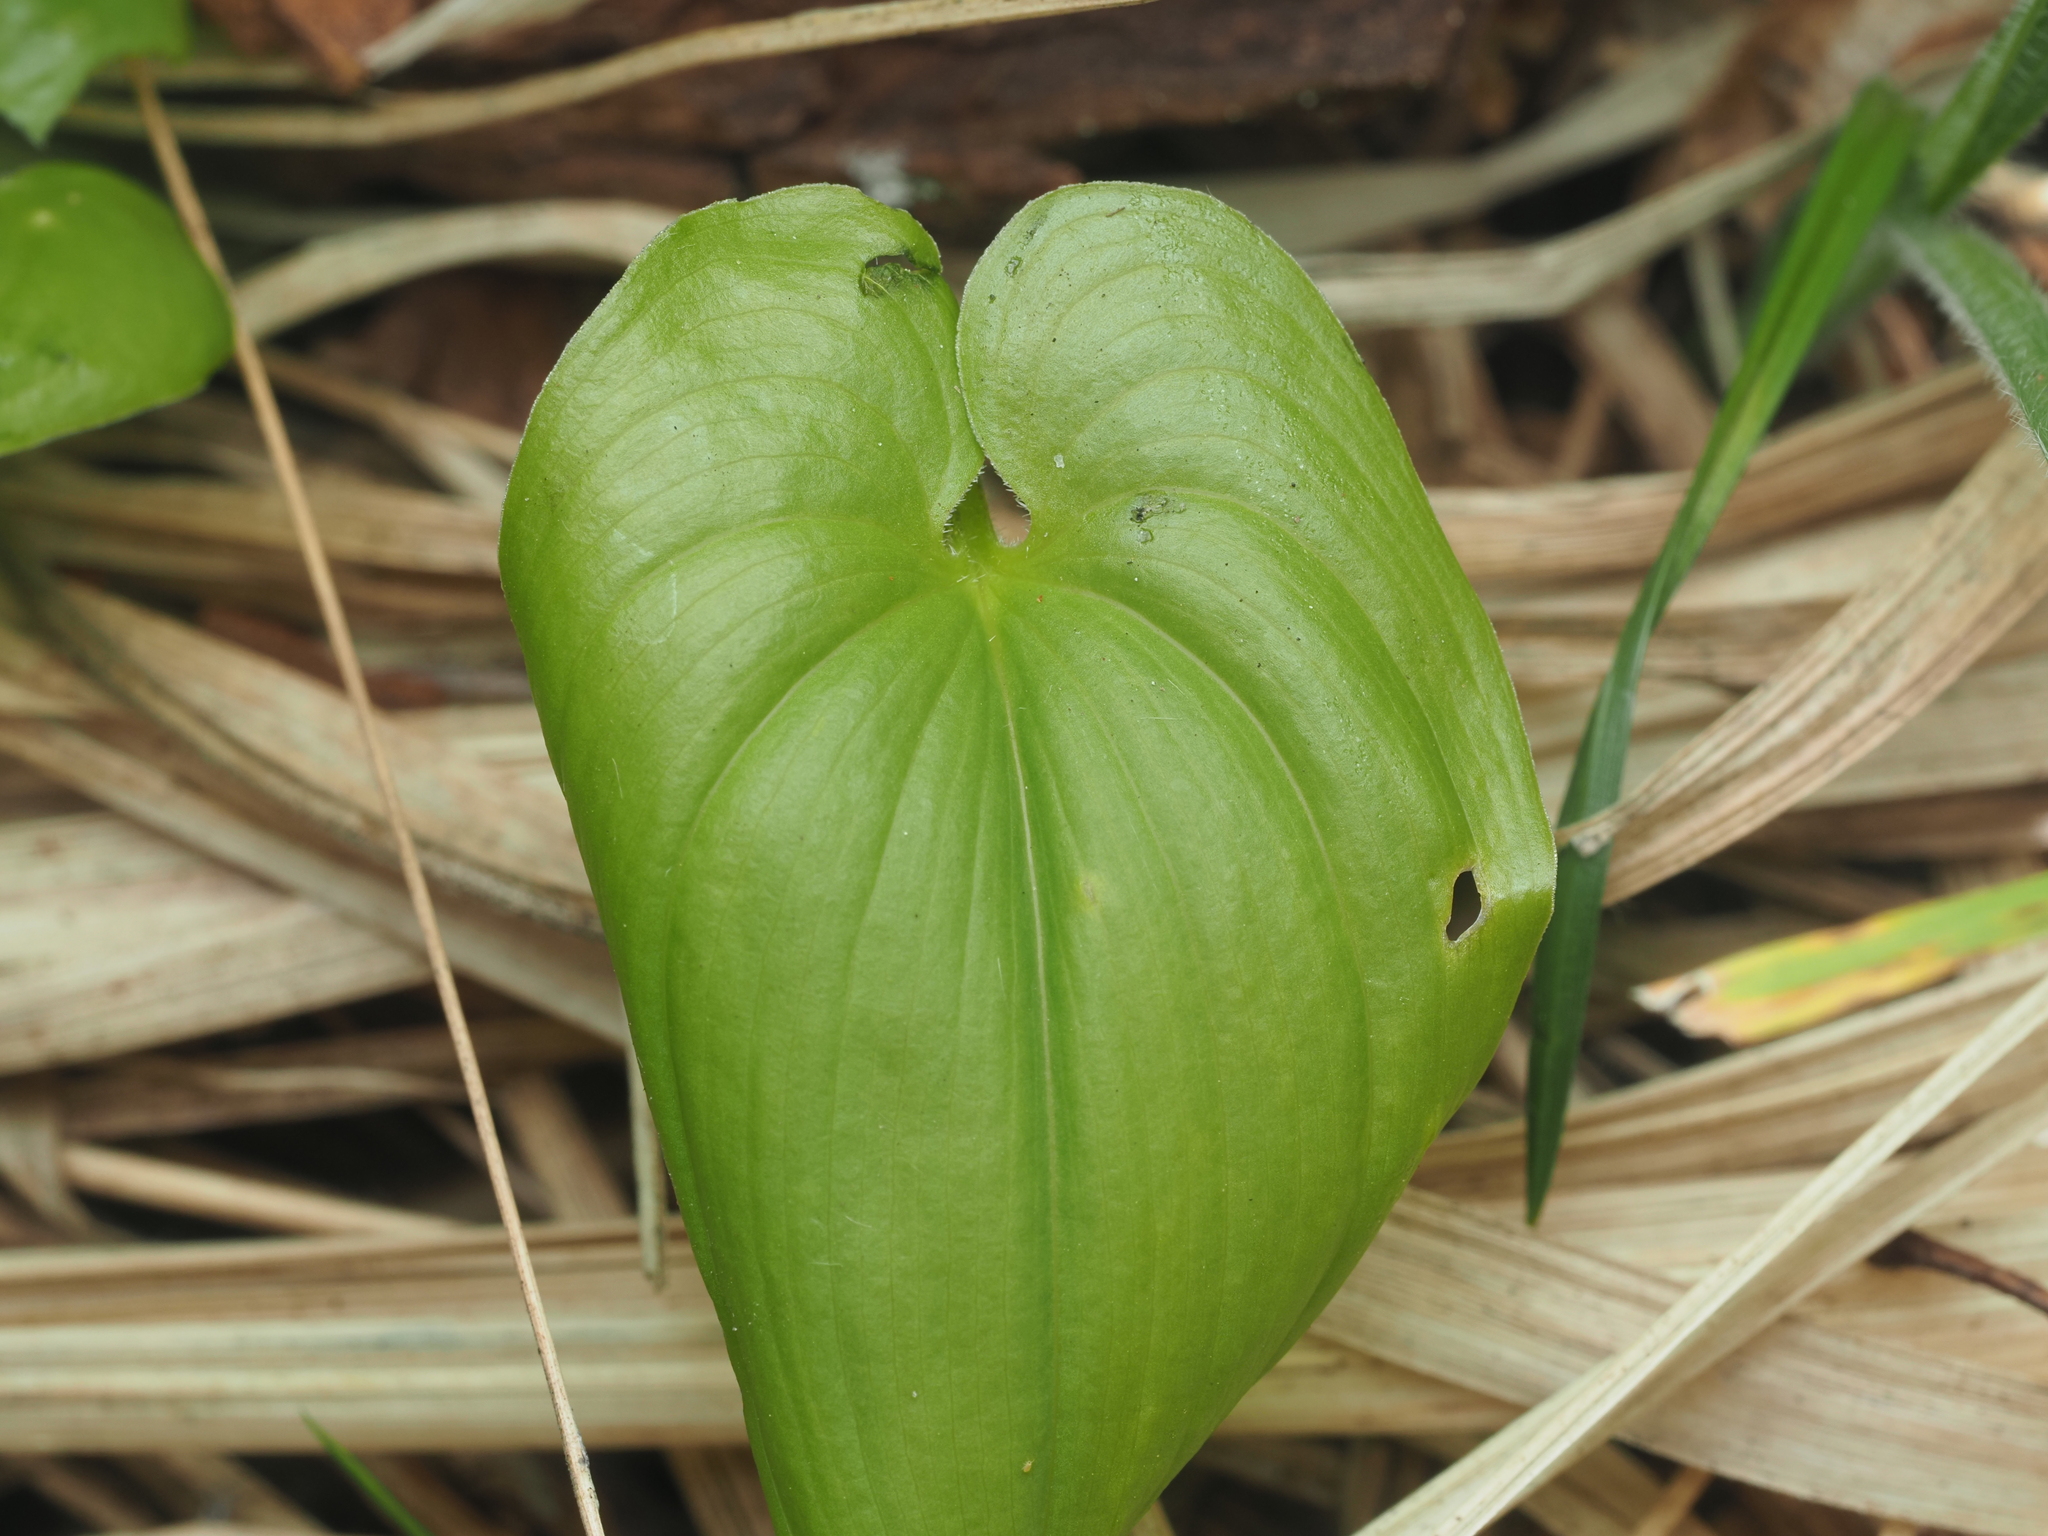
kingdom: Plantae
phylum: Tracheophyta
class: Liliopsida
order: Asparagales
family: Asparagaceae
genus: Maianthemum
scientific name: Maianthemum bifolium
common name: May lily
